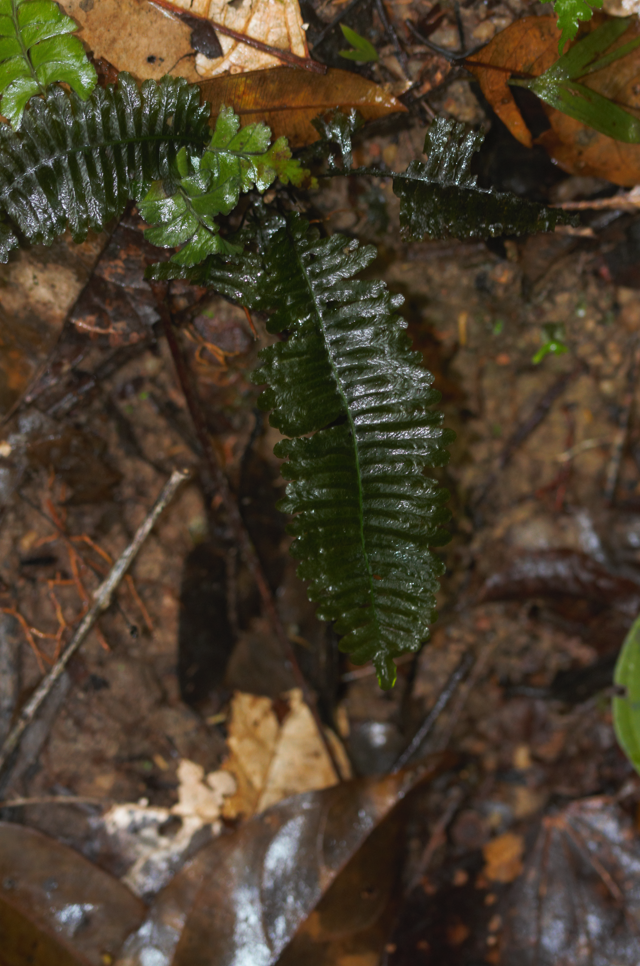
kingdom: Plantae
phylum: Tracheophyta
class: Polypodiopsida
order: Hymenophyllales
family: Hymenophyllaceae
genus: Trichomanes
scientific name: Trichomanes diversifrons
